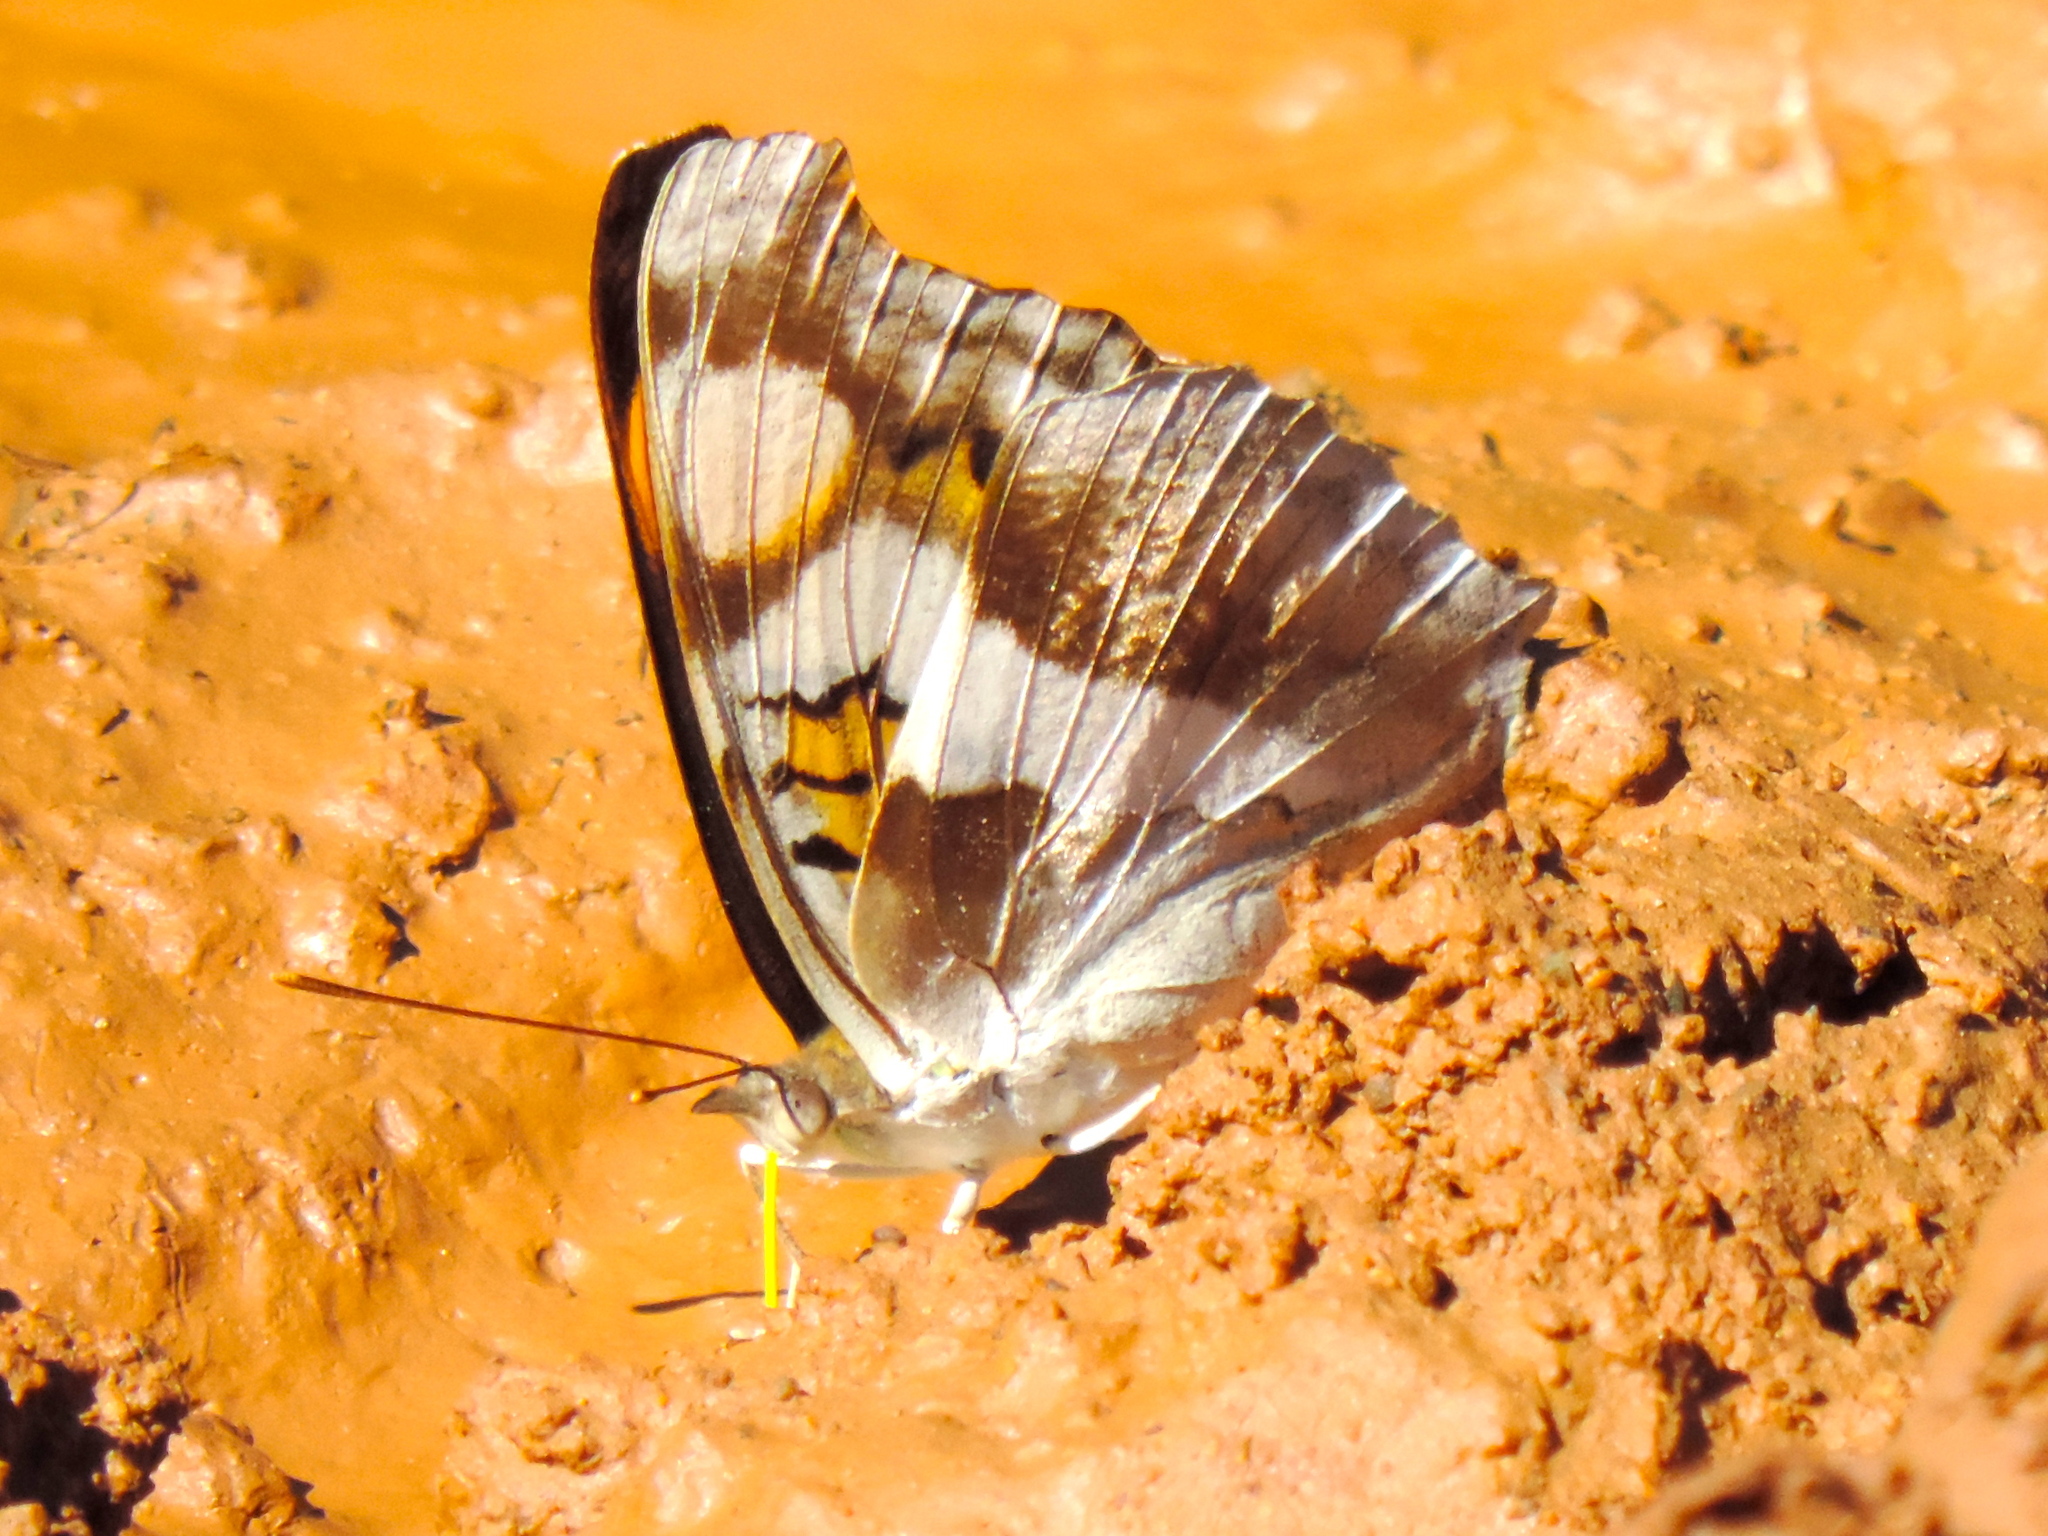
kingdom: Animalia
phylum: Arthropoda
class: Insecta
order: Lepidoptera
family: Nymphalidae
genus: Doxocopa
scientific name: Doxocopa laure
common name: Silver emperor
